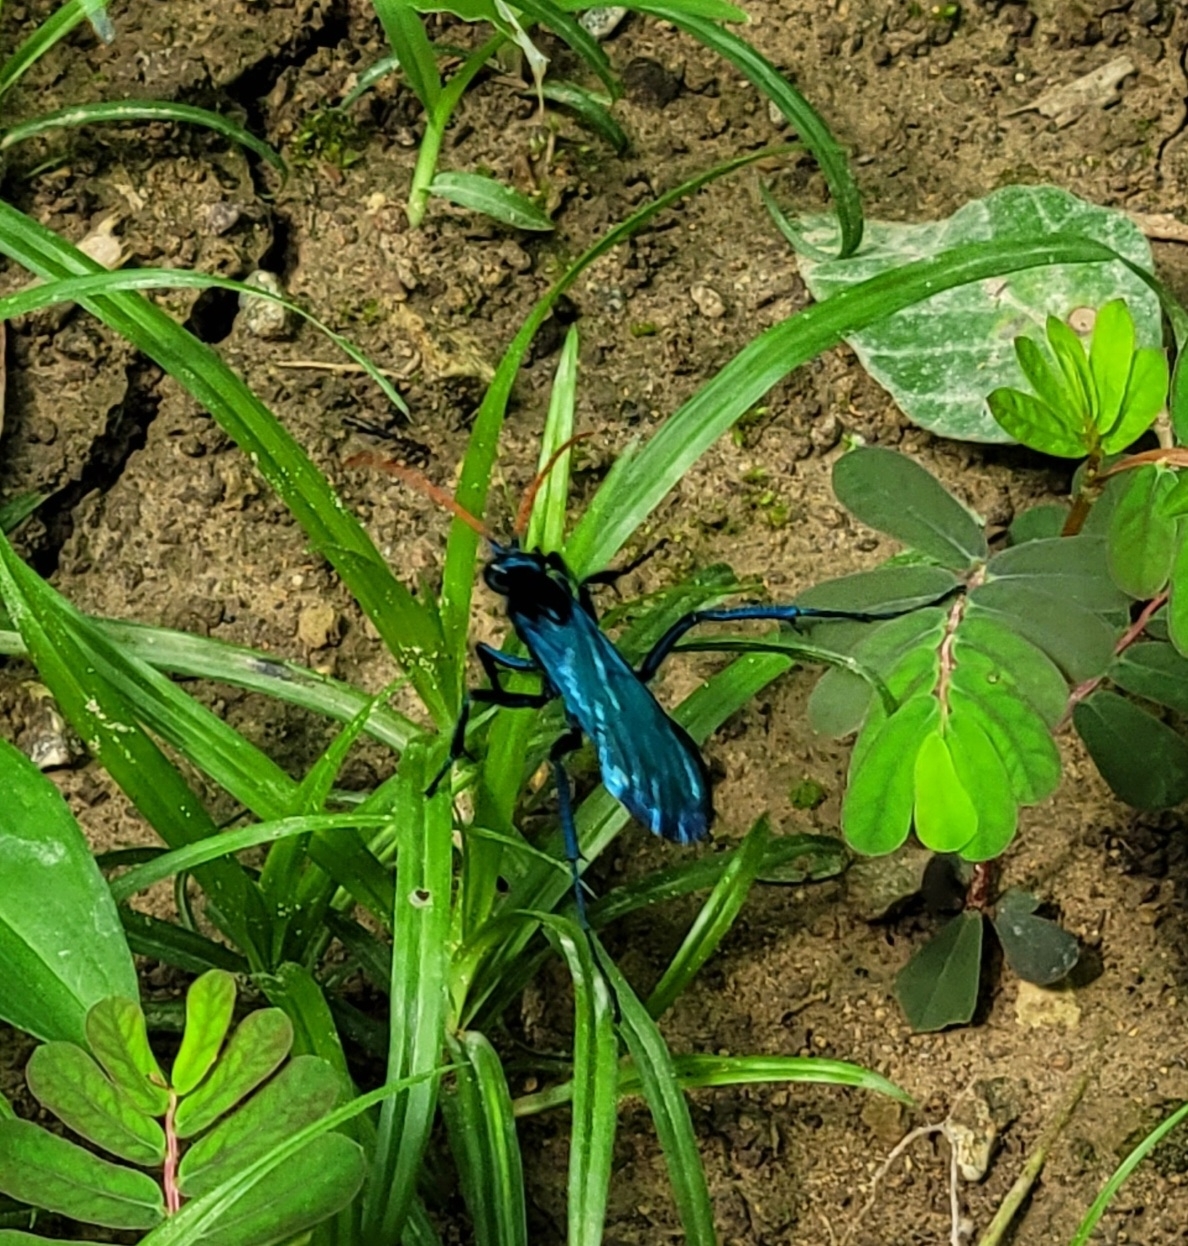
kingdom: Animalia
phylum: Arthropoda
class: Insecta
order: Hymenoptera
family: Pompilidae
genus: Pepsis
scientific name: Pepsis ruficornis
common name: Orange-horned tarantula hawk
